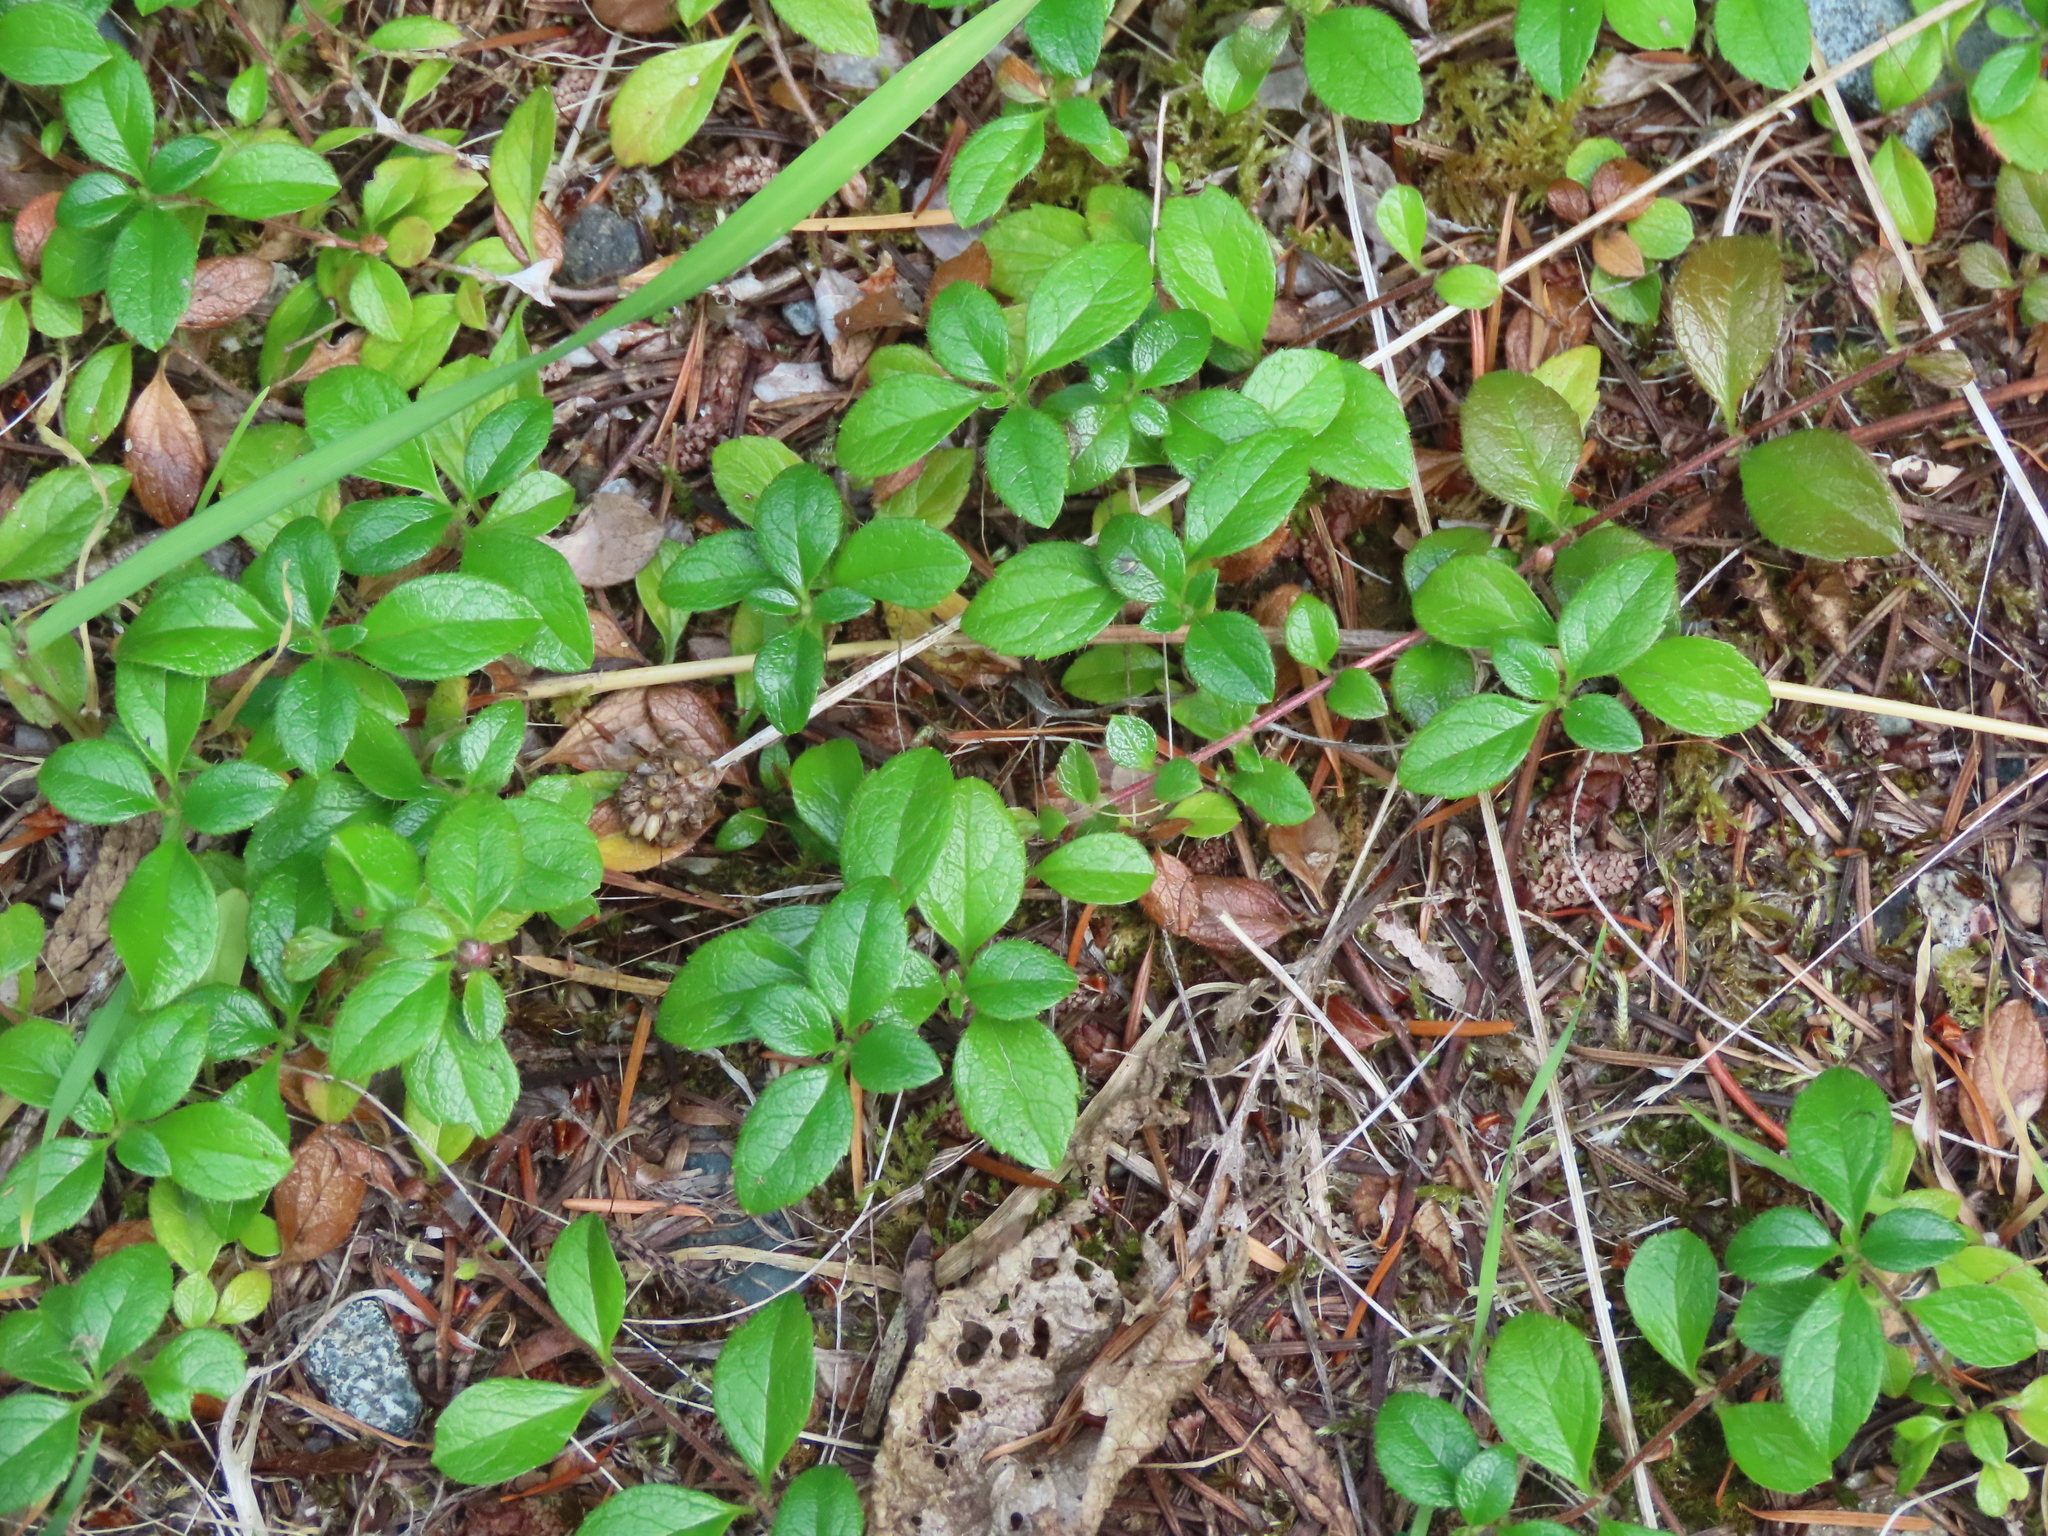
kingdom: Plantae
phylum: Tracheophyta
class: Magnoliopsida
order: Dipsacales
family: Caprifoliaceae
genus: Linnaea
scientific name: Linnaea borealis
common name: Twinflower
